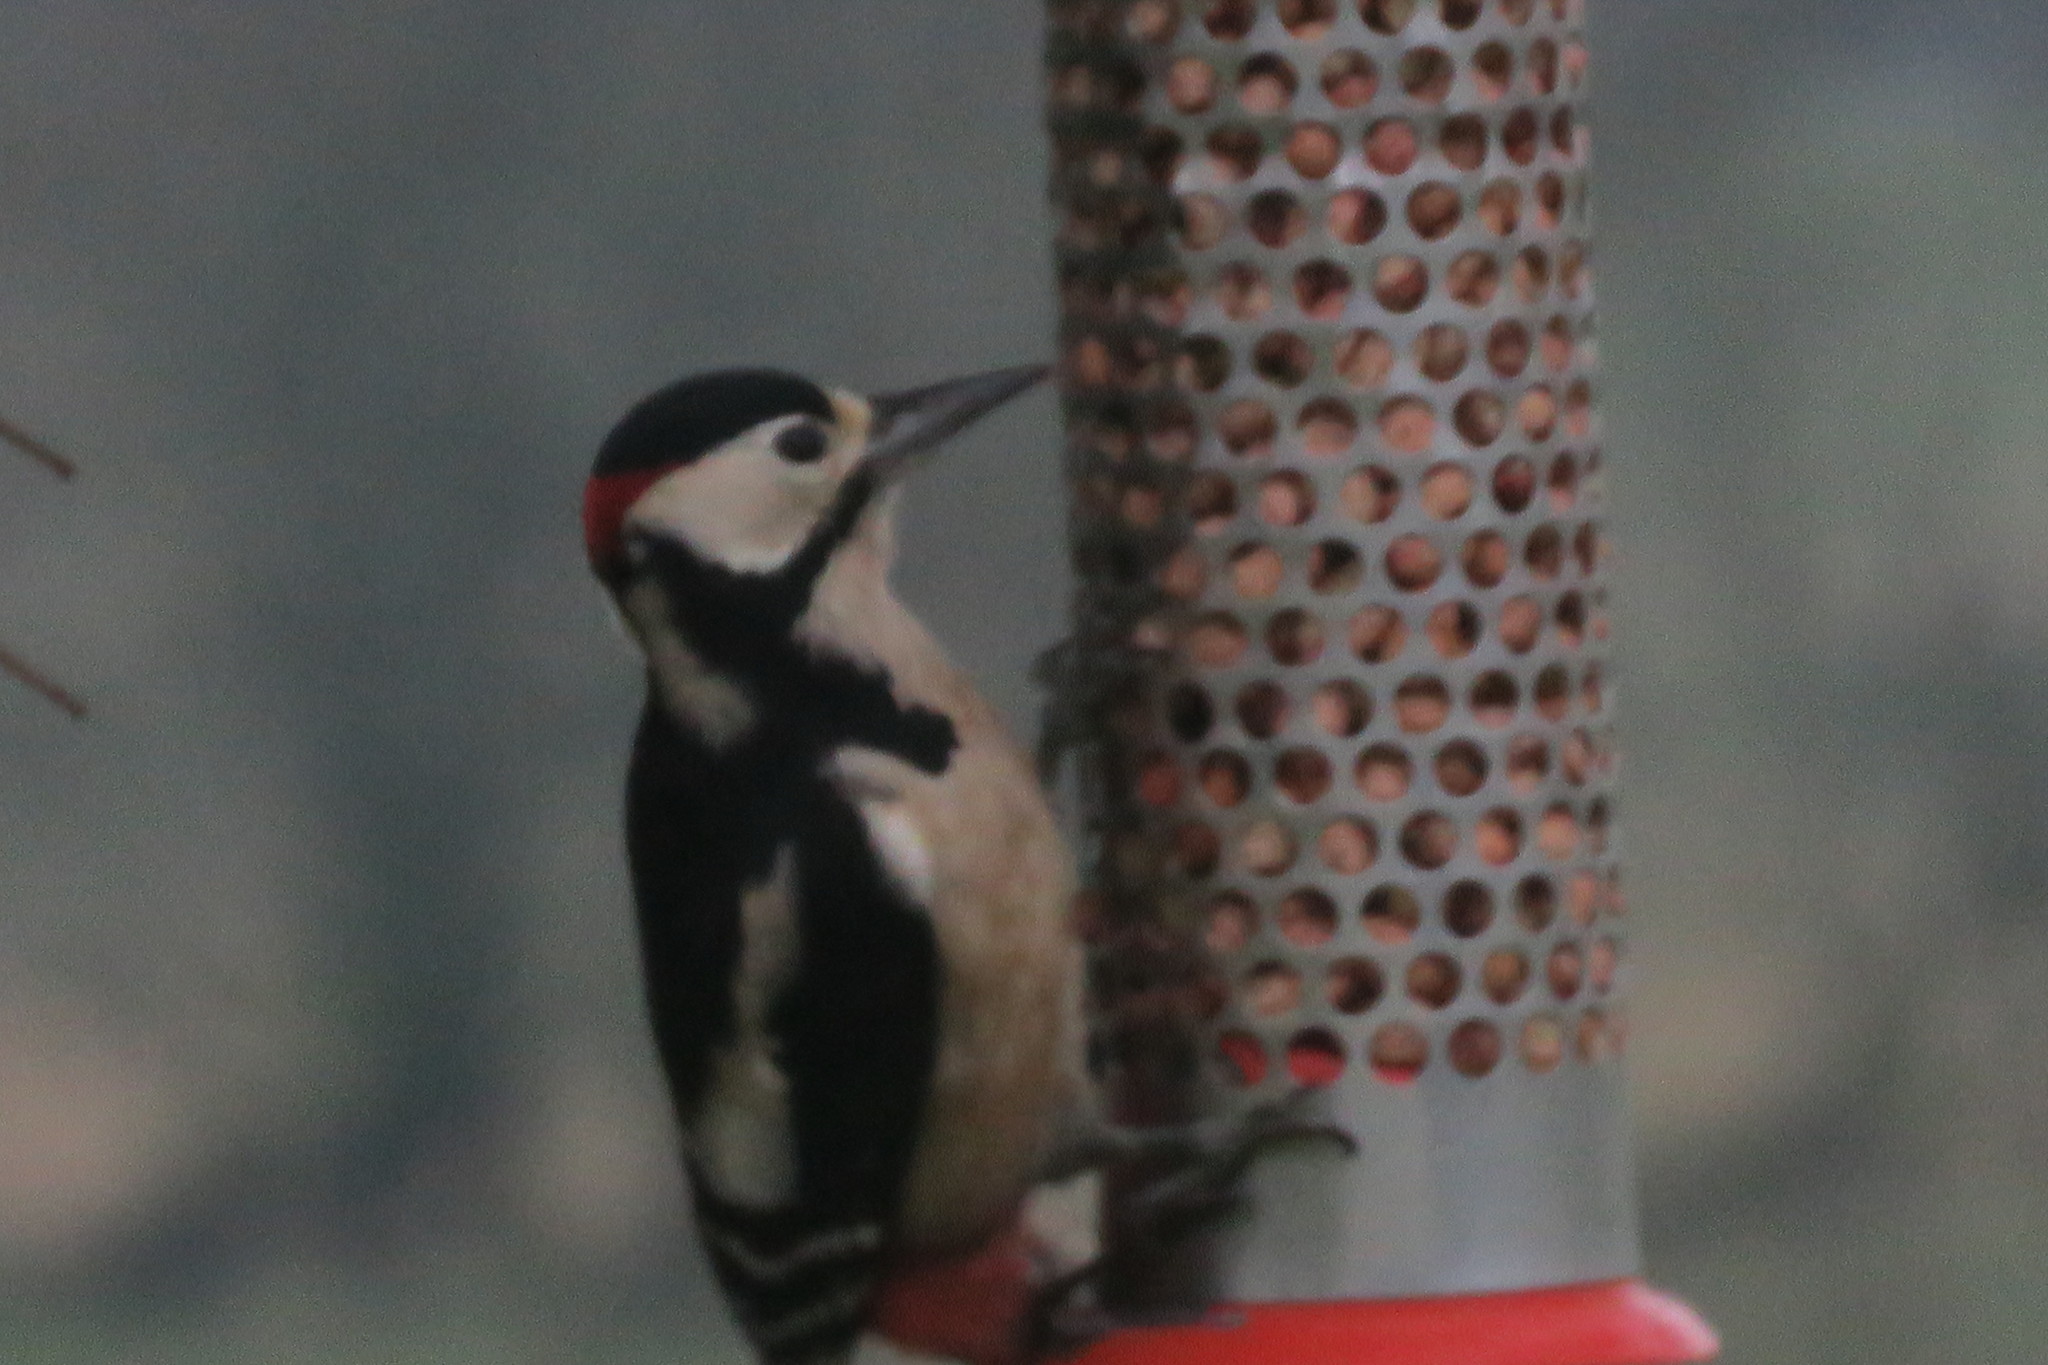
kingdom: Animalia
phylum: Chordata
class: Aves
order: Piciformes
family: Picidae
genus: Dendrocopos
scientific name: Dendrocopos major
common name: Great spotted woodpecker
